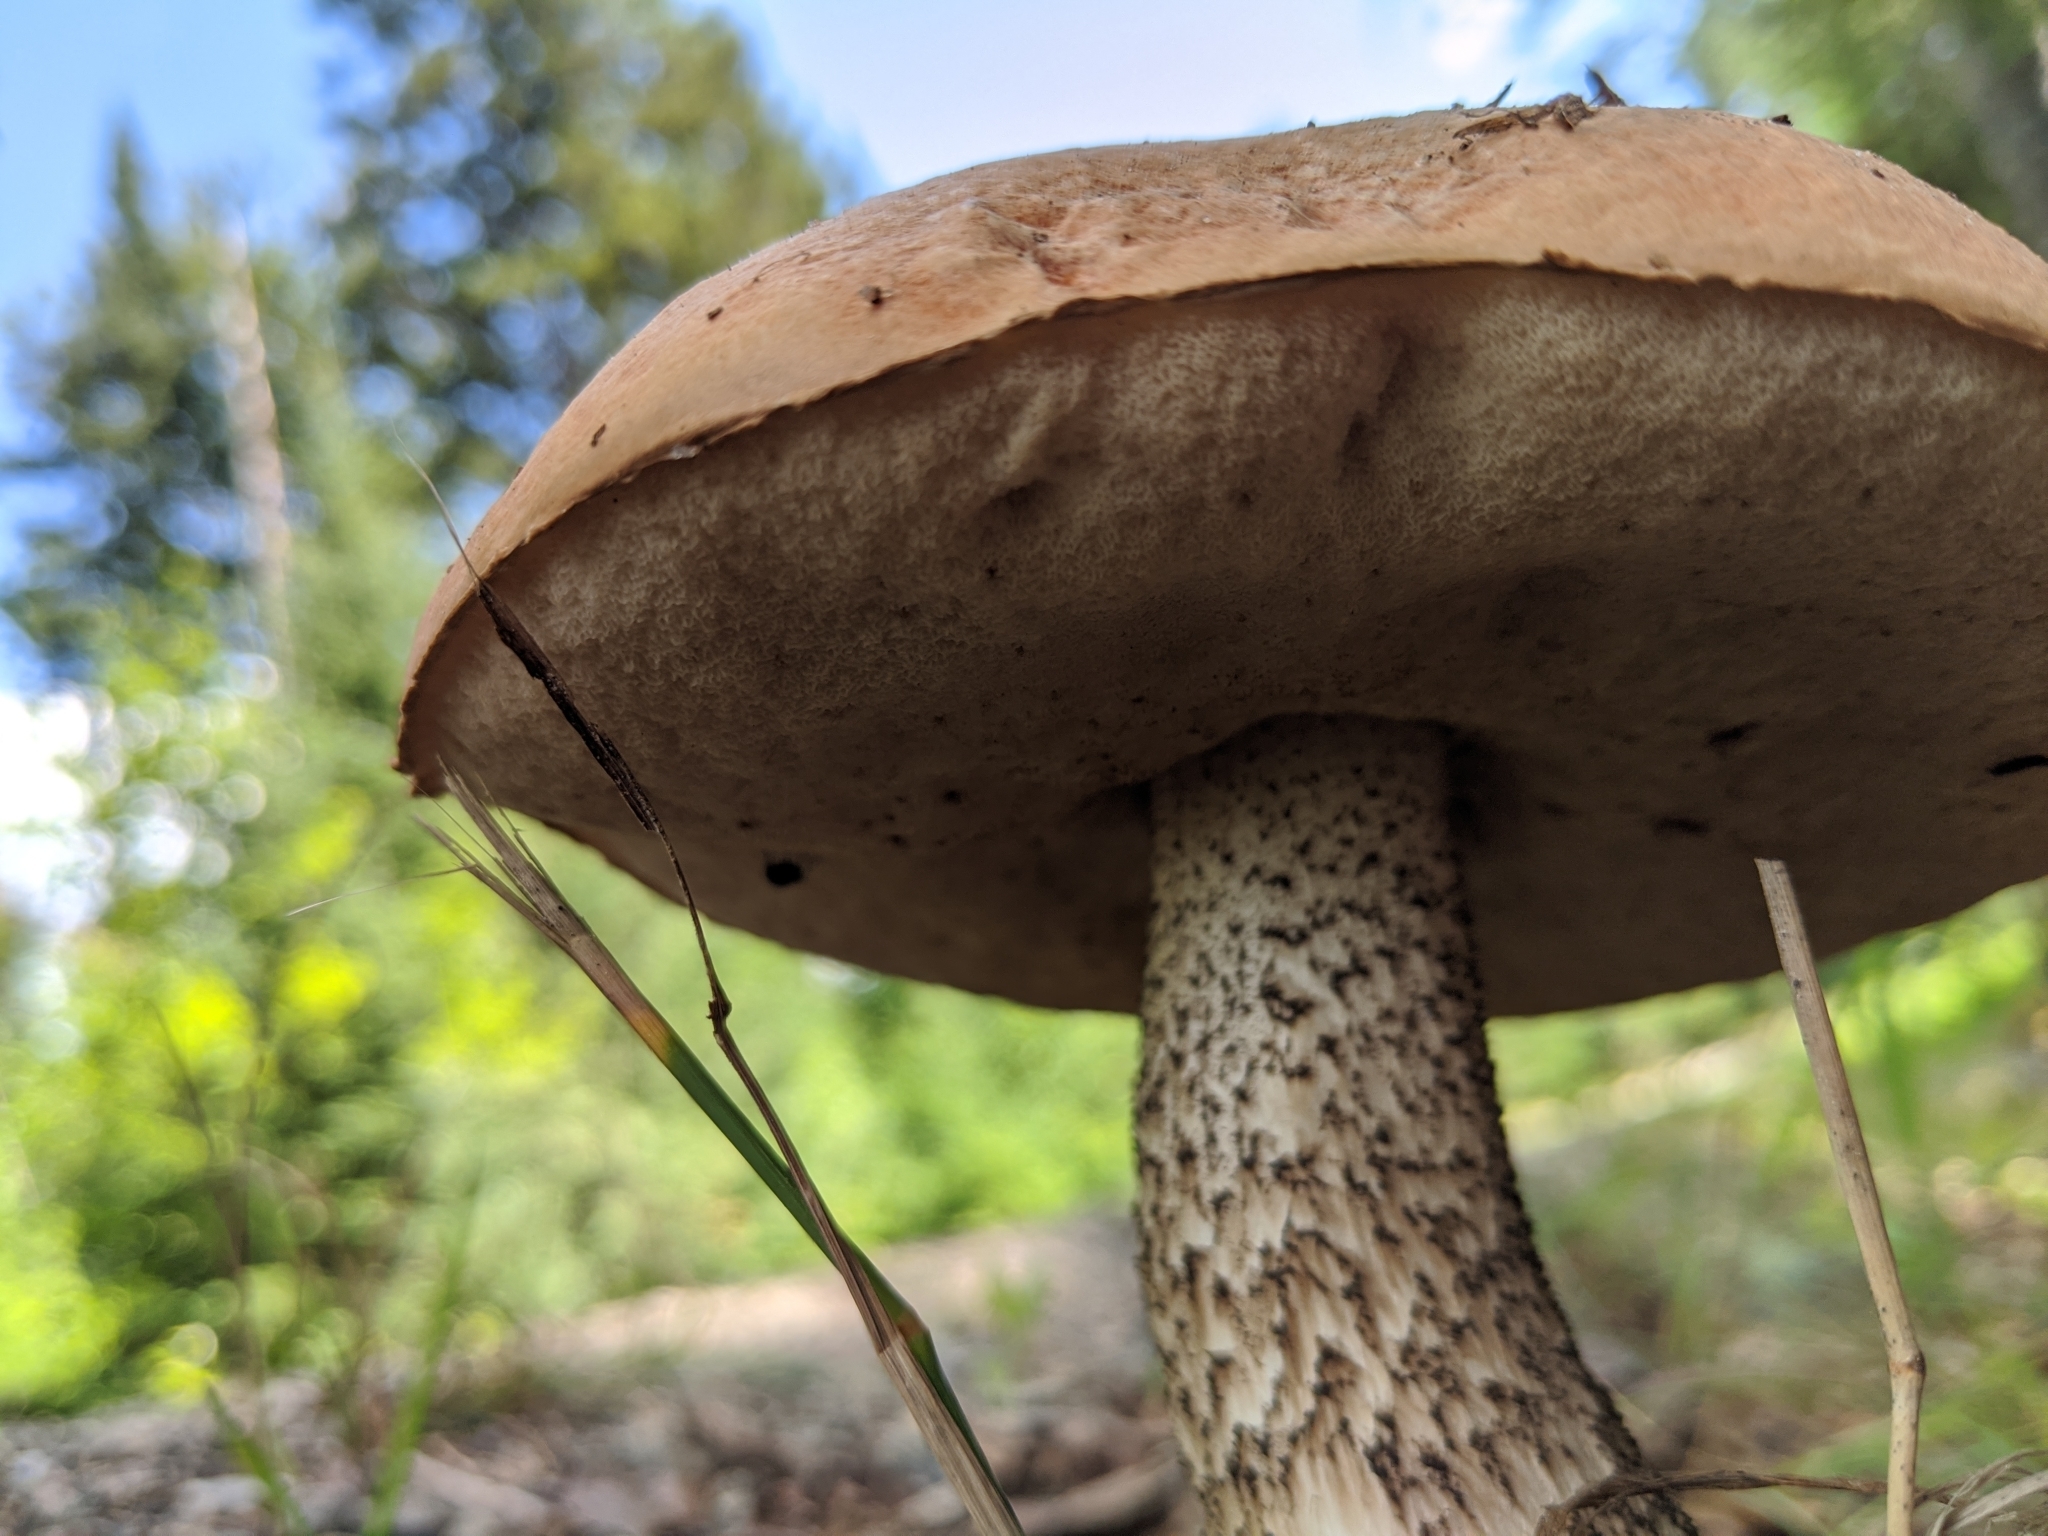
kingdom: Fungi
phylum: Basidiomycota
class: Agaricomycetes
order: Boletales
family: Boletaceae
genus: Leccinum
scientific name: Leccinum scabrum
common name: Blushing bolete
